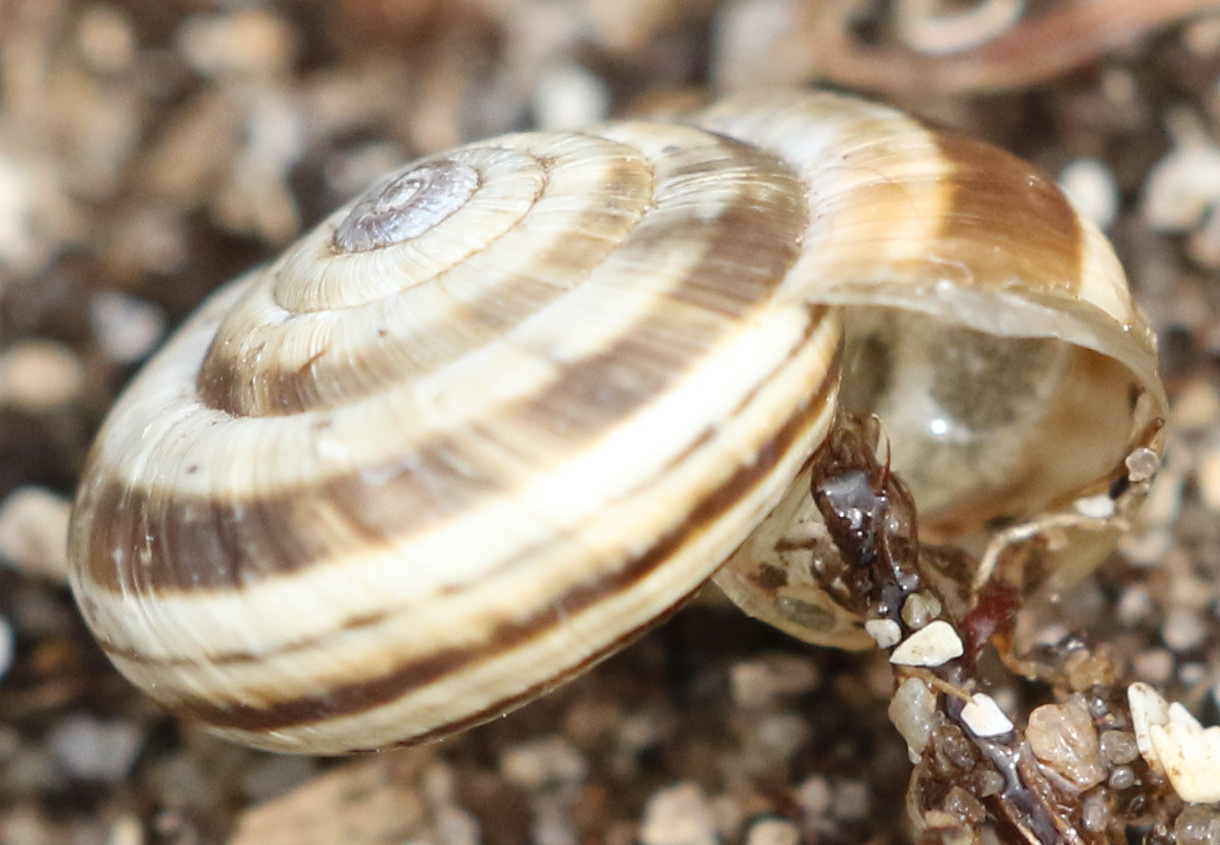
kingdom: Animalia
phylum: Mollusca
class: Gastropoda
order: Stylommatophora
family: Geomitridae
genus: Helicella
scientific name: Helicella itala
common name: Heath snail
